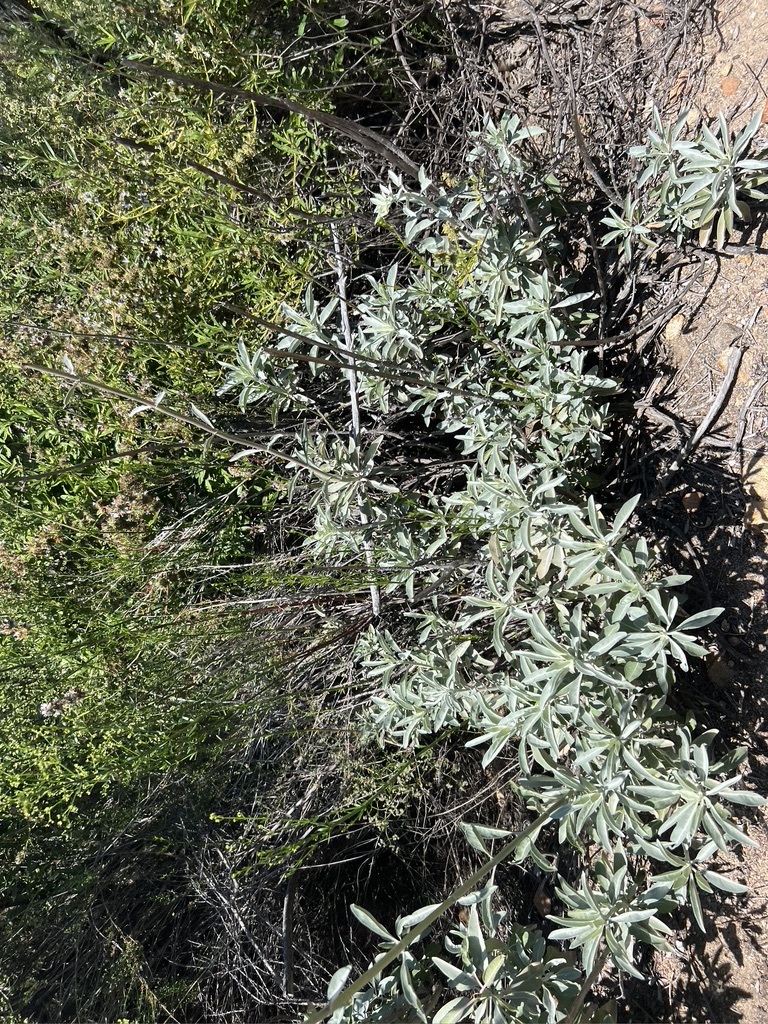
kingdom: Plantae
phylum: Tracheophyta
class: Magnoliopsida
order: Lamiales
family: Lamiaceae
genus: Salvia
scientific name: Salvia apiana
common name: White sage
